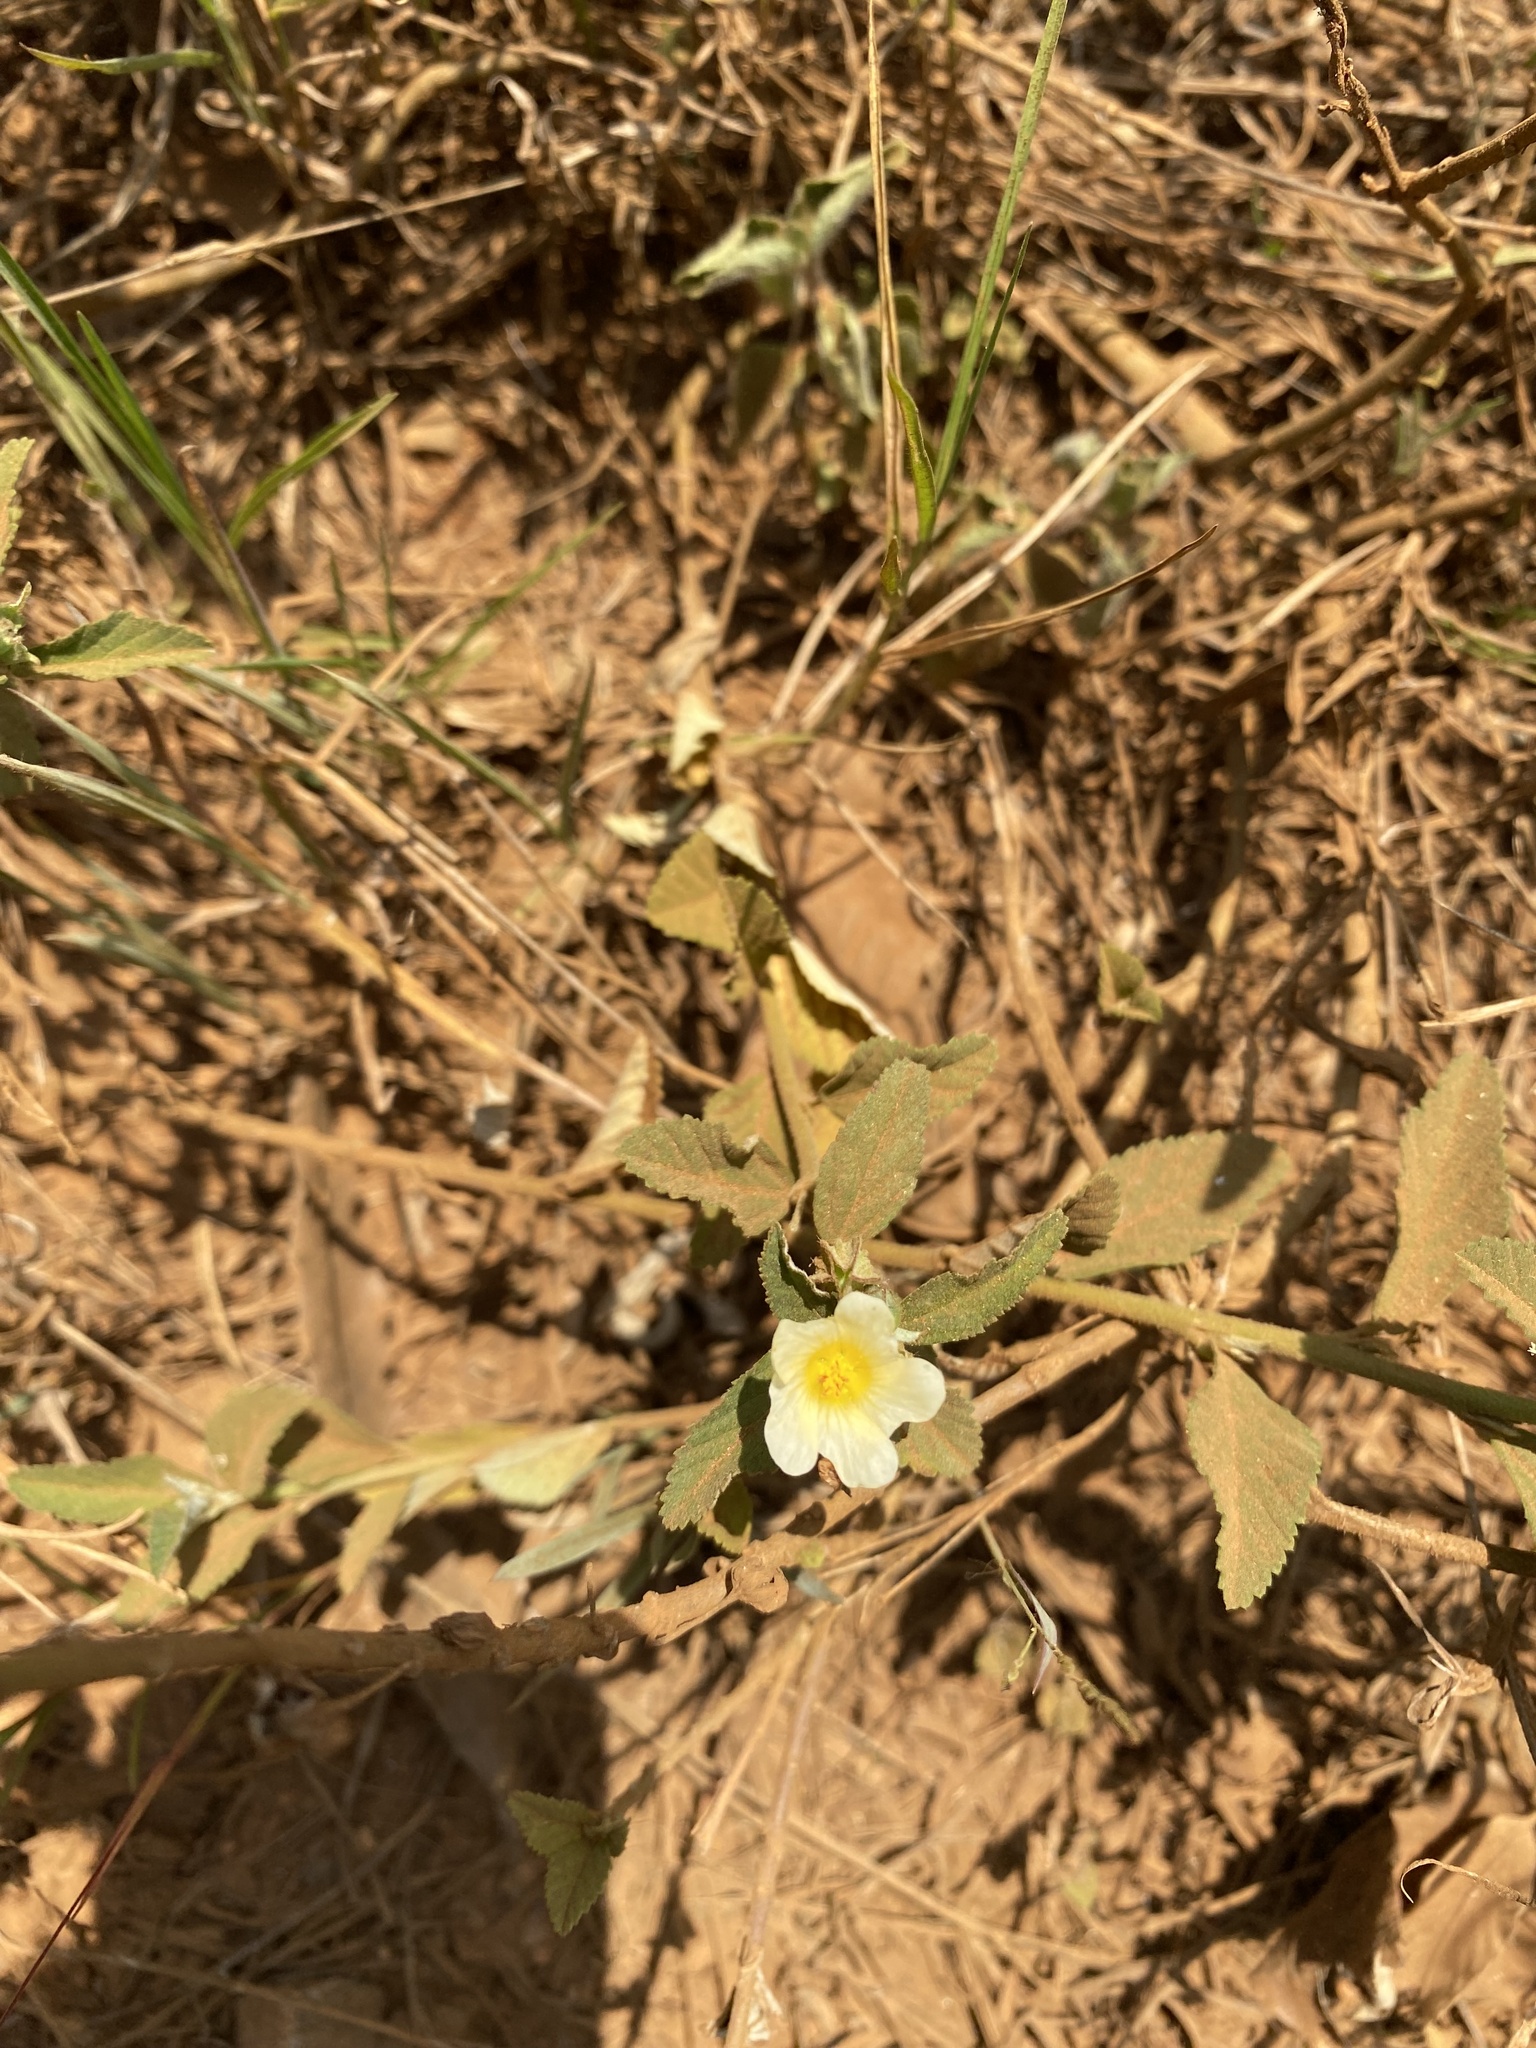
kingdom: Plantae
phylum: Tracheophyta
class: Magnoliopsida
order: Malvales
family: Malvaceae
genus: Sida
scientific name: Sida rhombifolia
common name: Queensland-hemp
